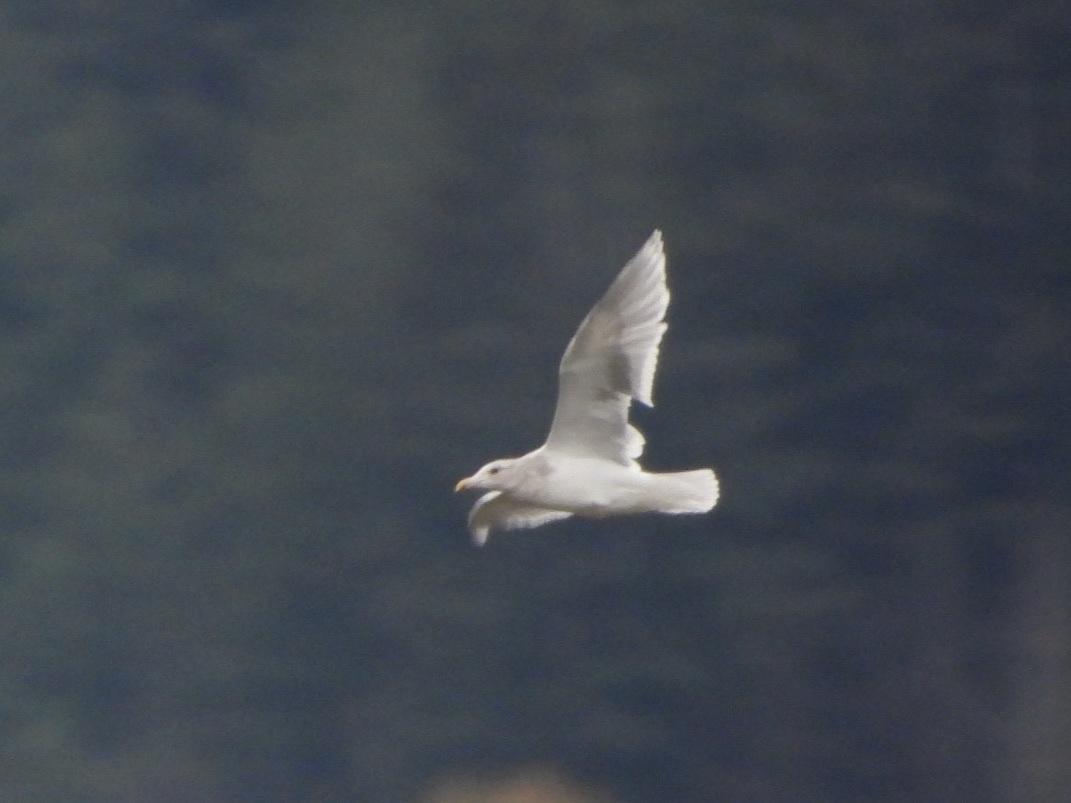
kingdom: Animalia
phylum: Chordata
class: Aves
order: Charadriiformes
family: Laridae
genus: Larus
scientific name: Larus glaucescens
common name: Glaucous-winged gull
